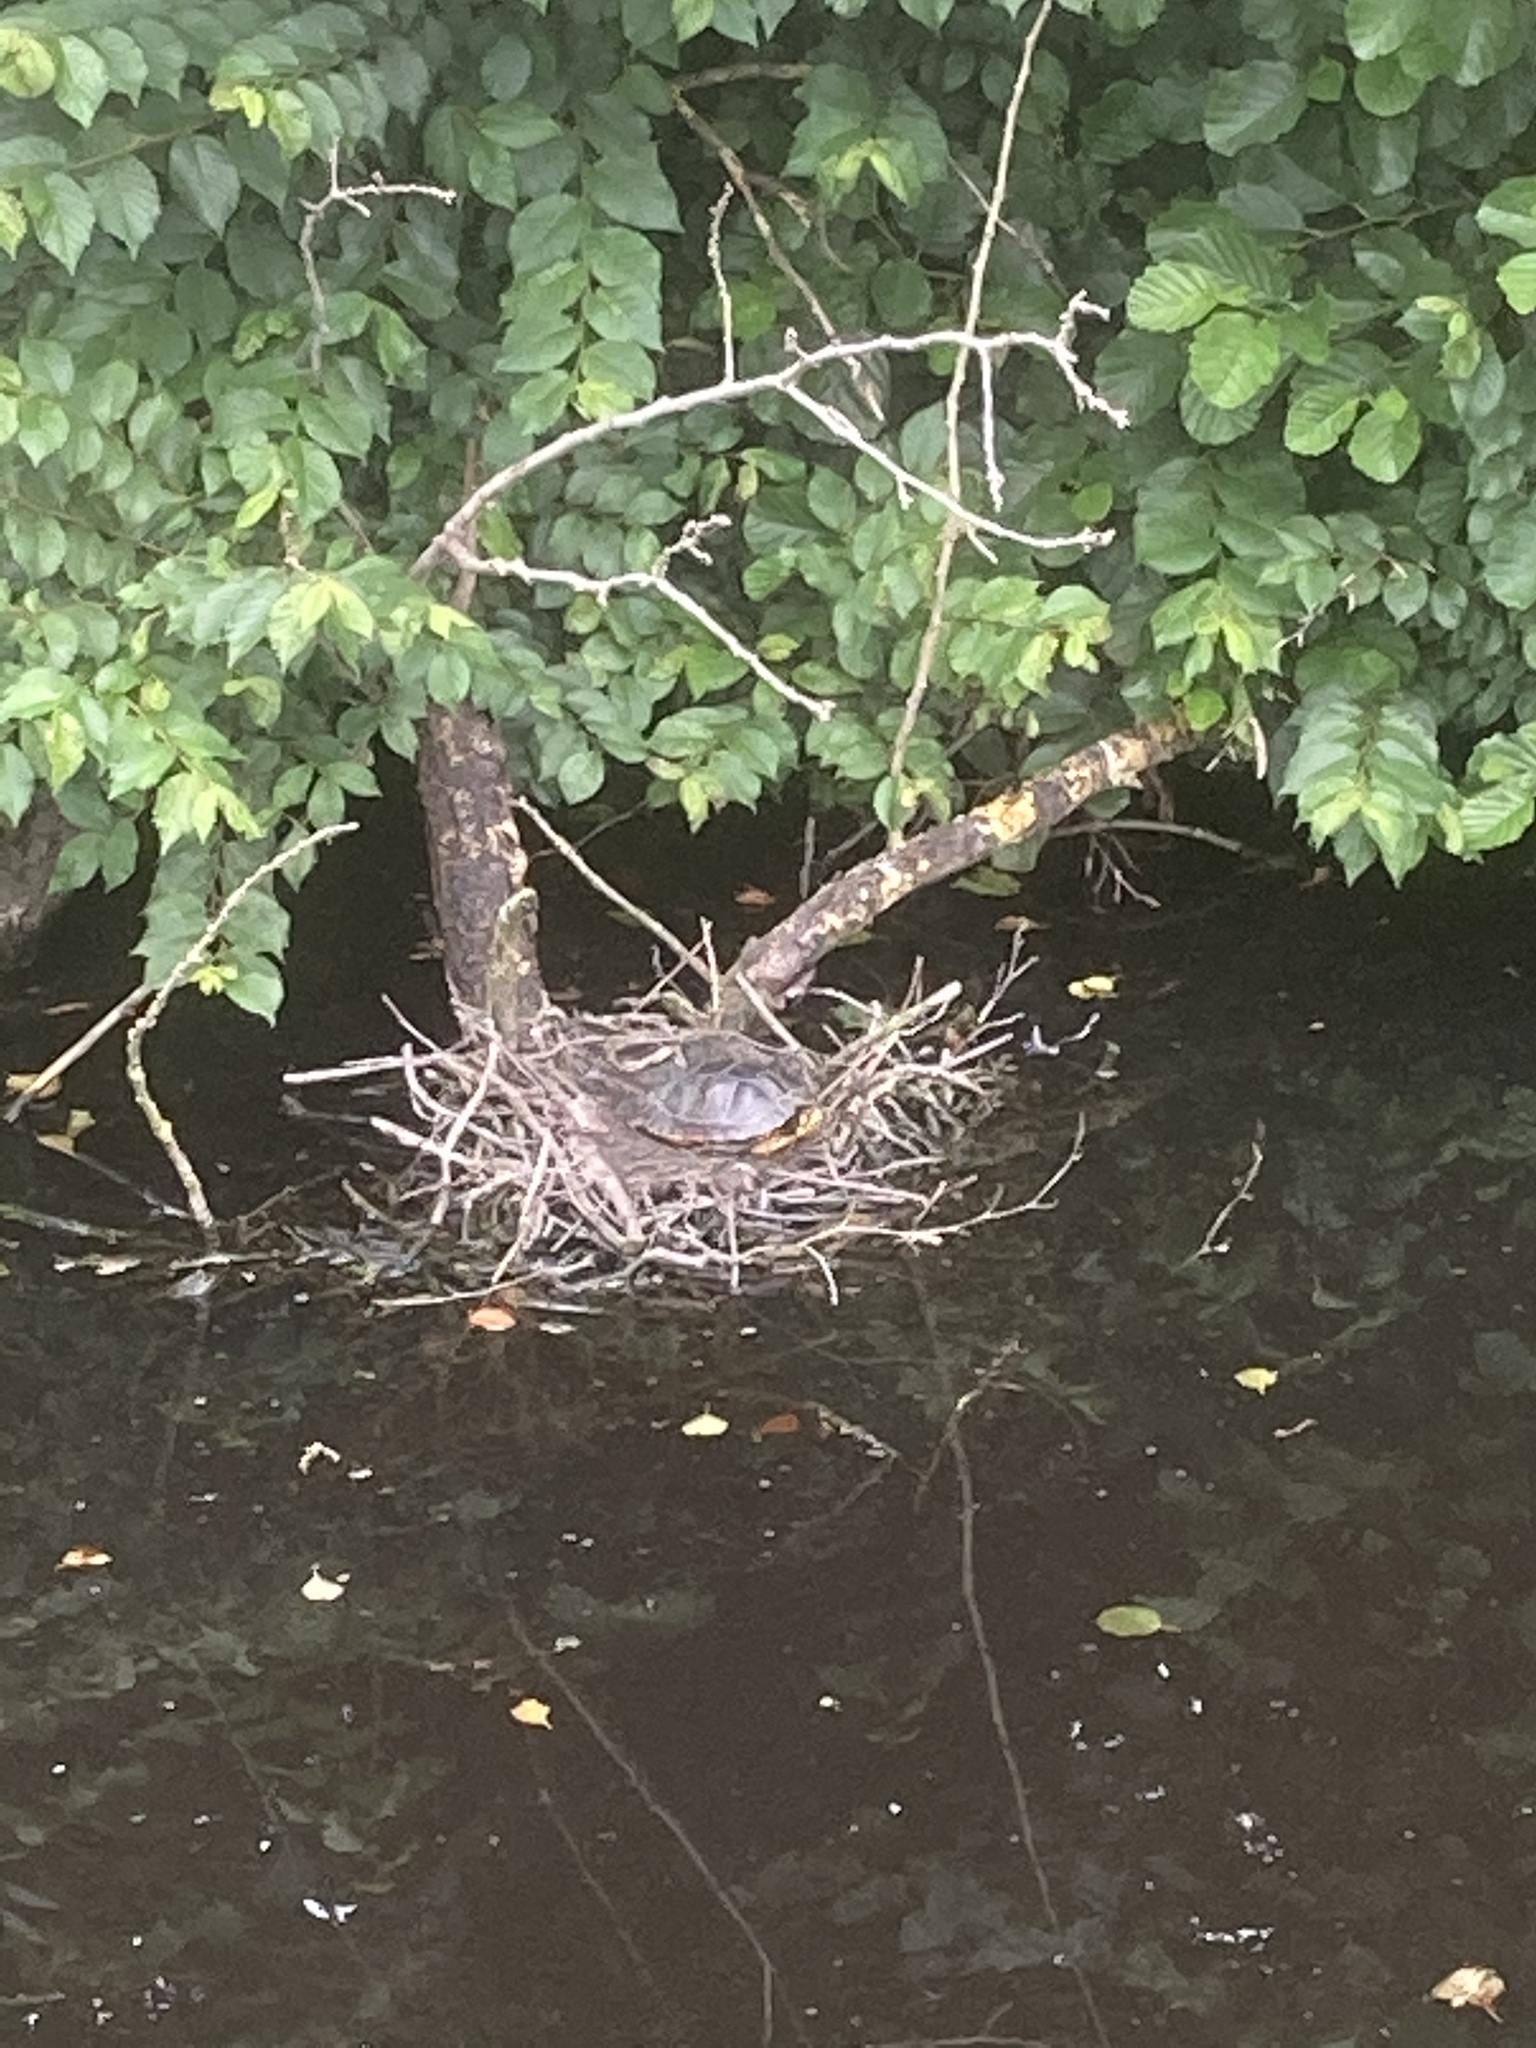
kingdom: Animalia
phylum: Chordata
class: Testudines
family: Emydidae
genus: Trachemys
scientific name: Trachemys scripta
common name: Slider
